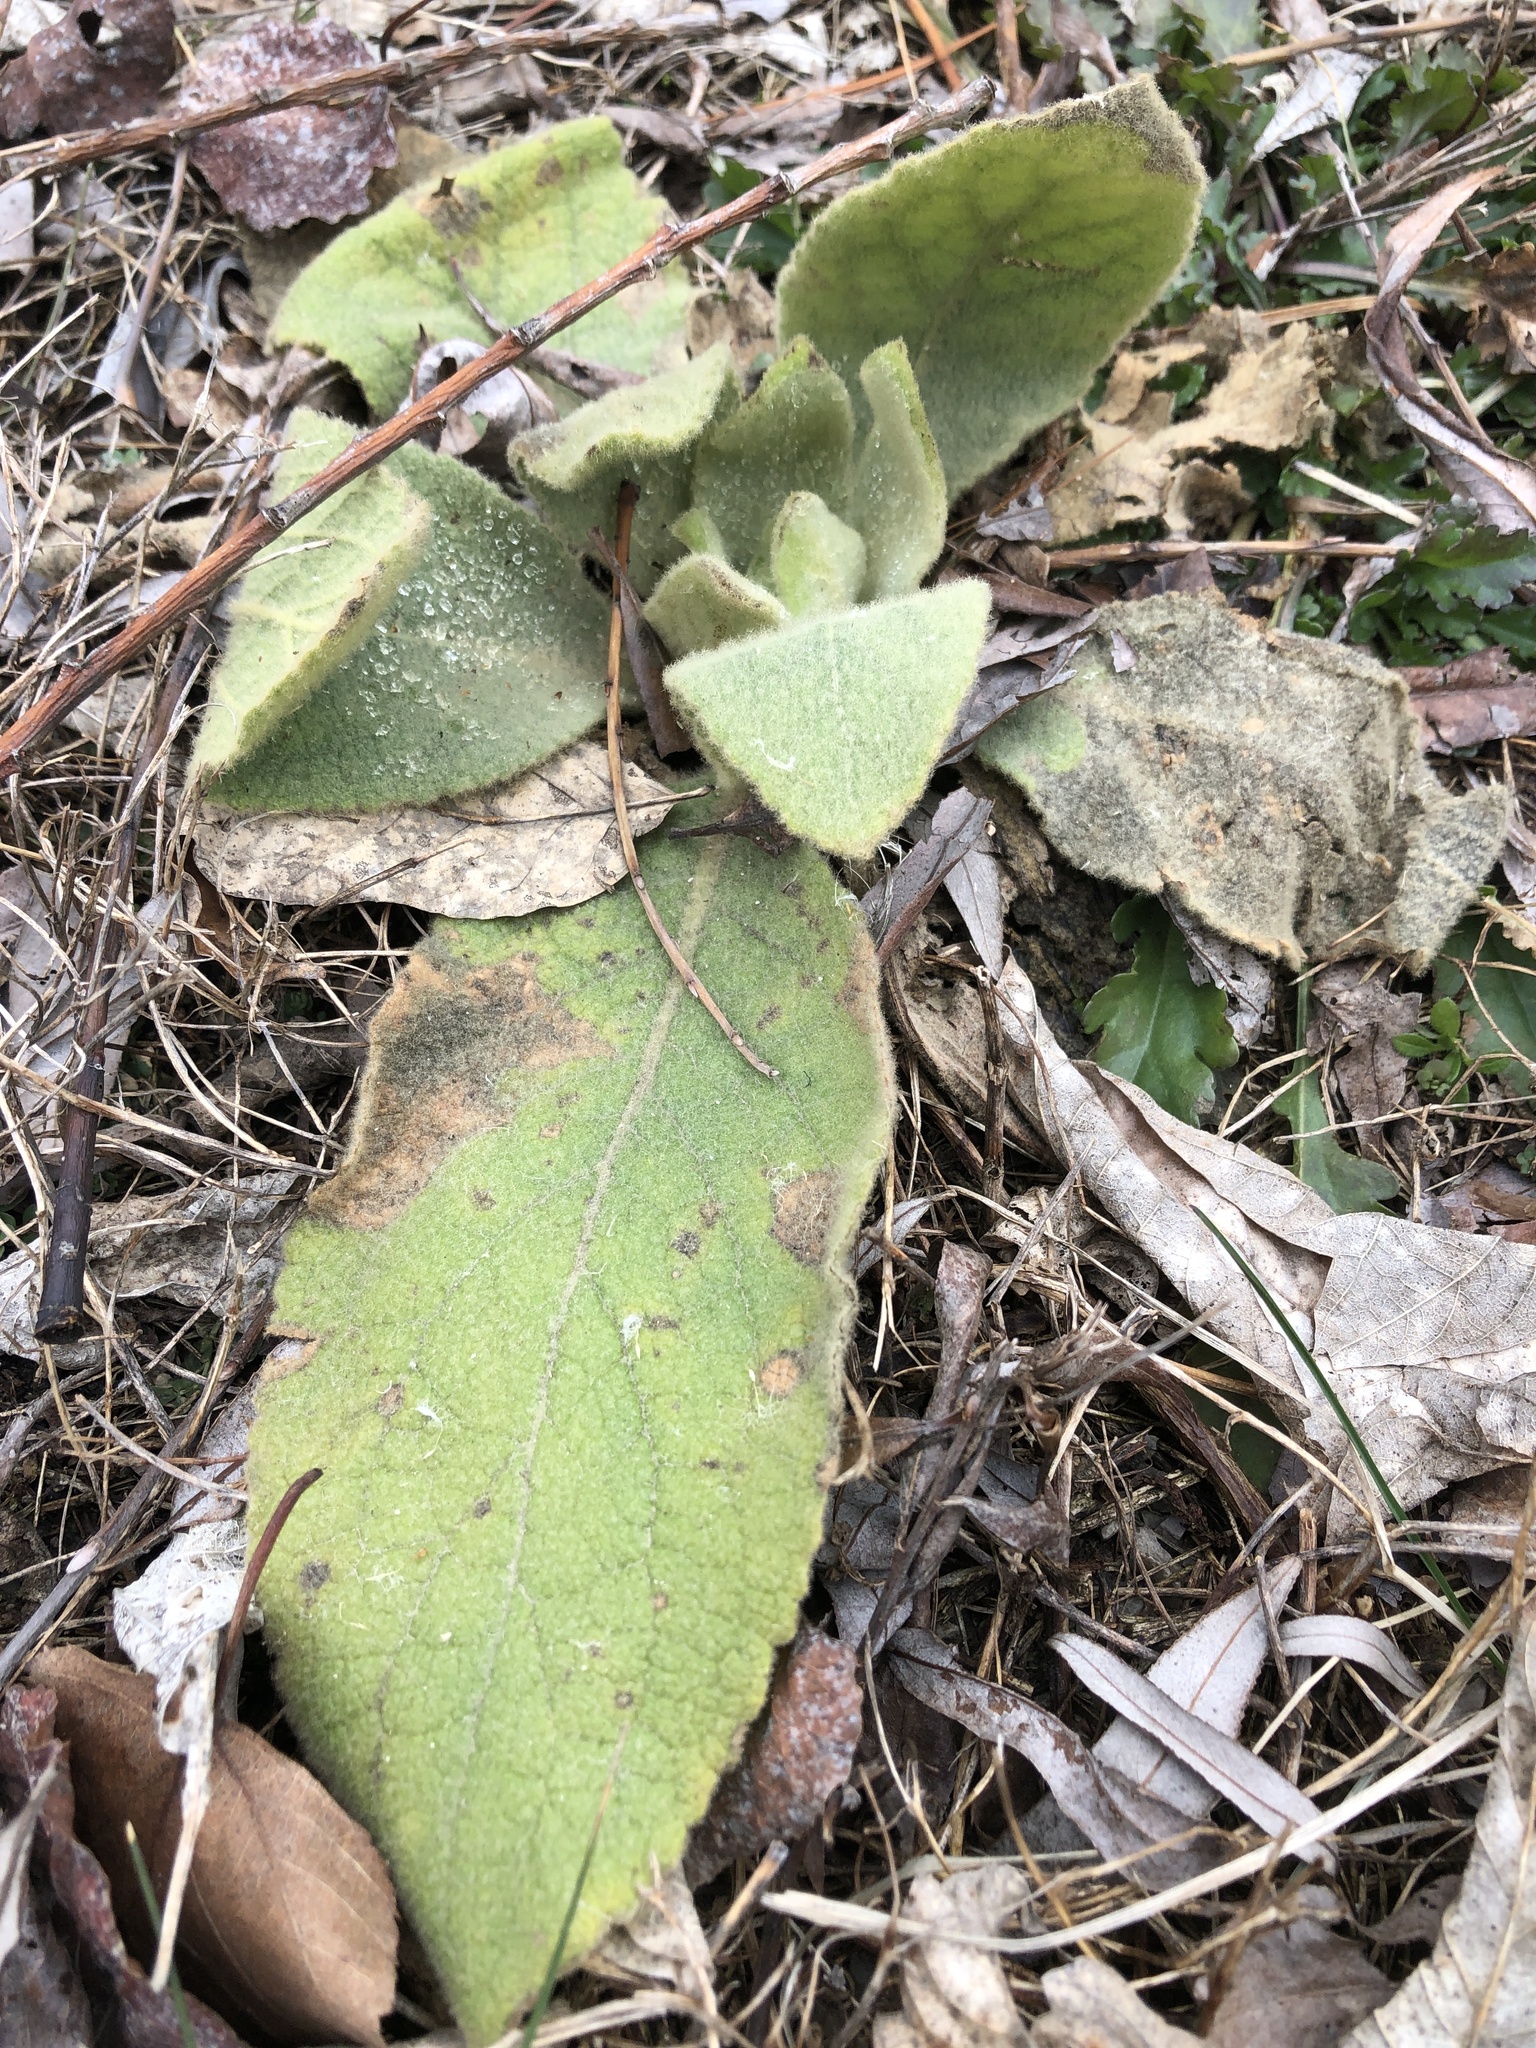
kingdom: Plantae
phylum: Tracheophyta
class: Magnoliopsida
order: Lamiales
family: Scrophulariaceae
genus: Verbascum
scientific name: Verbascum thapsus
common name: Common mullein
